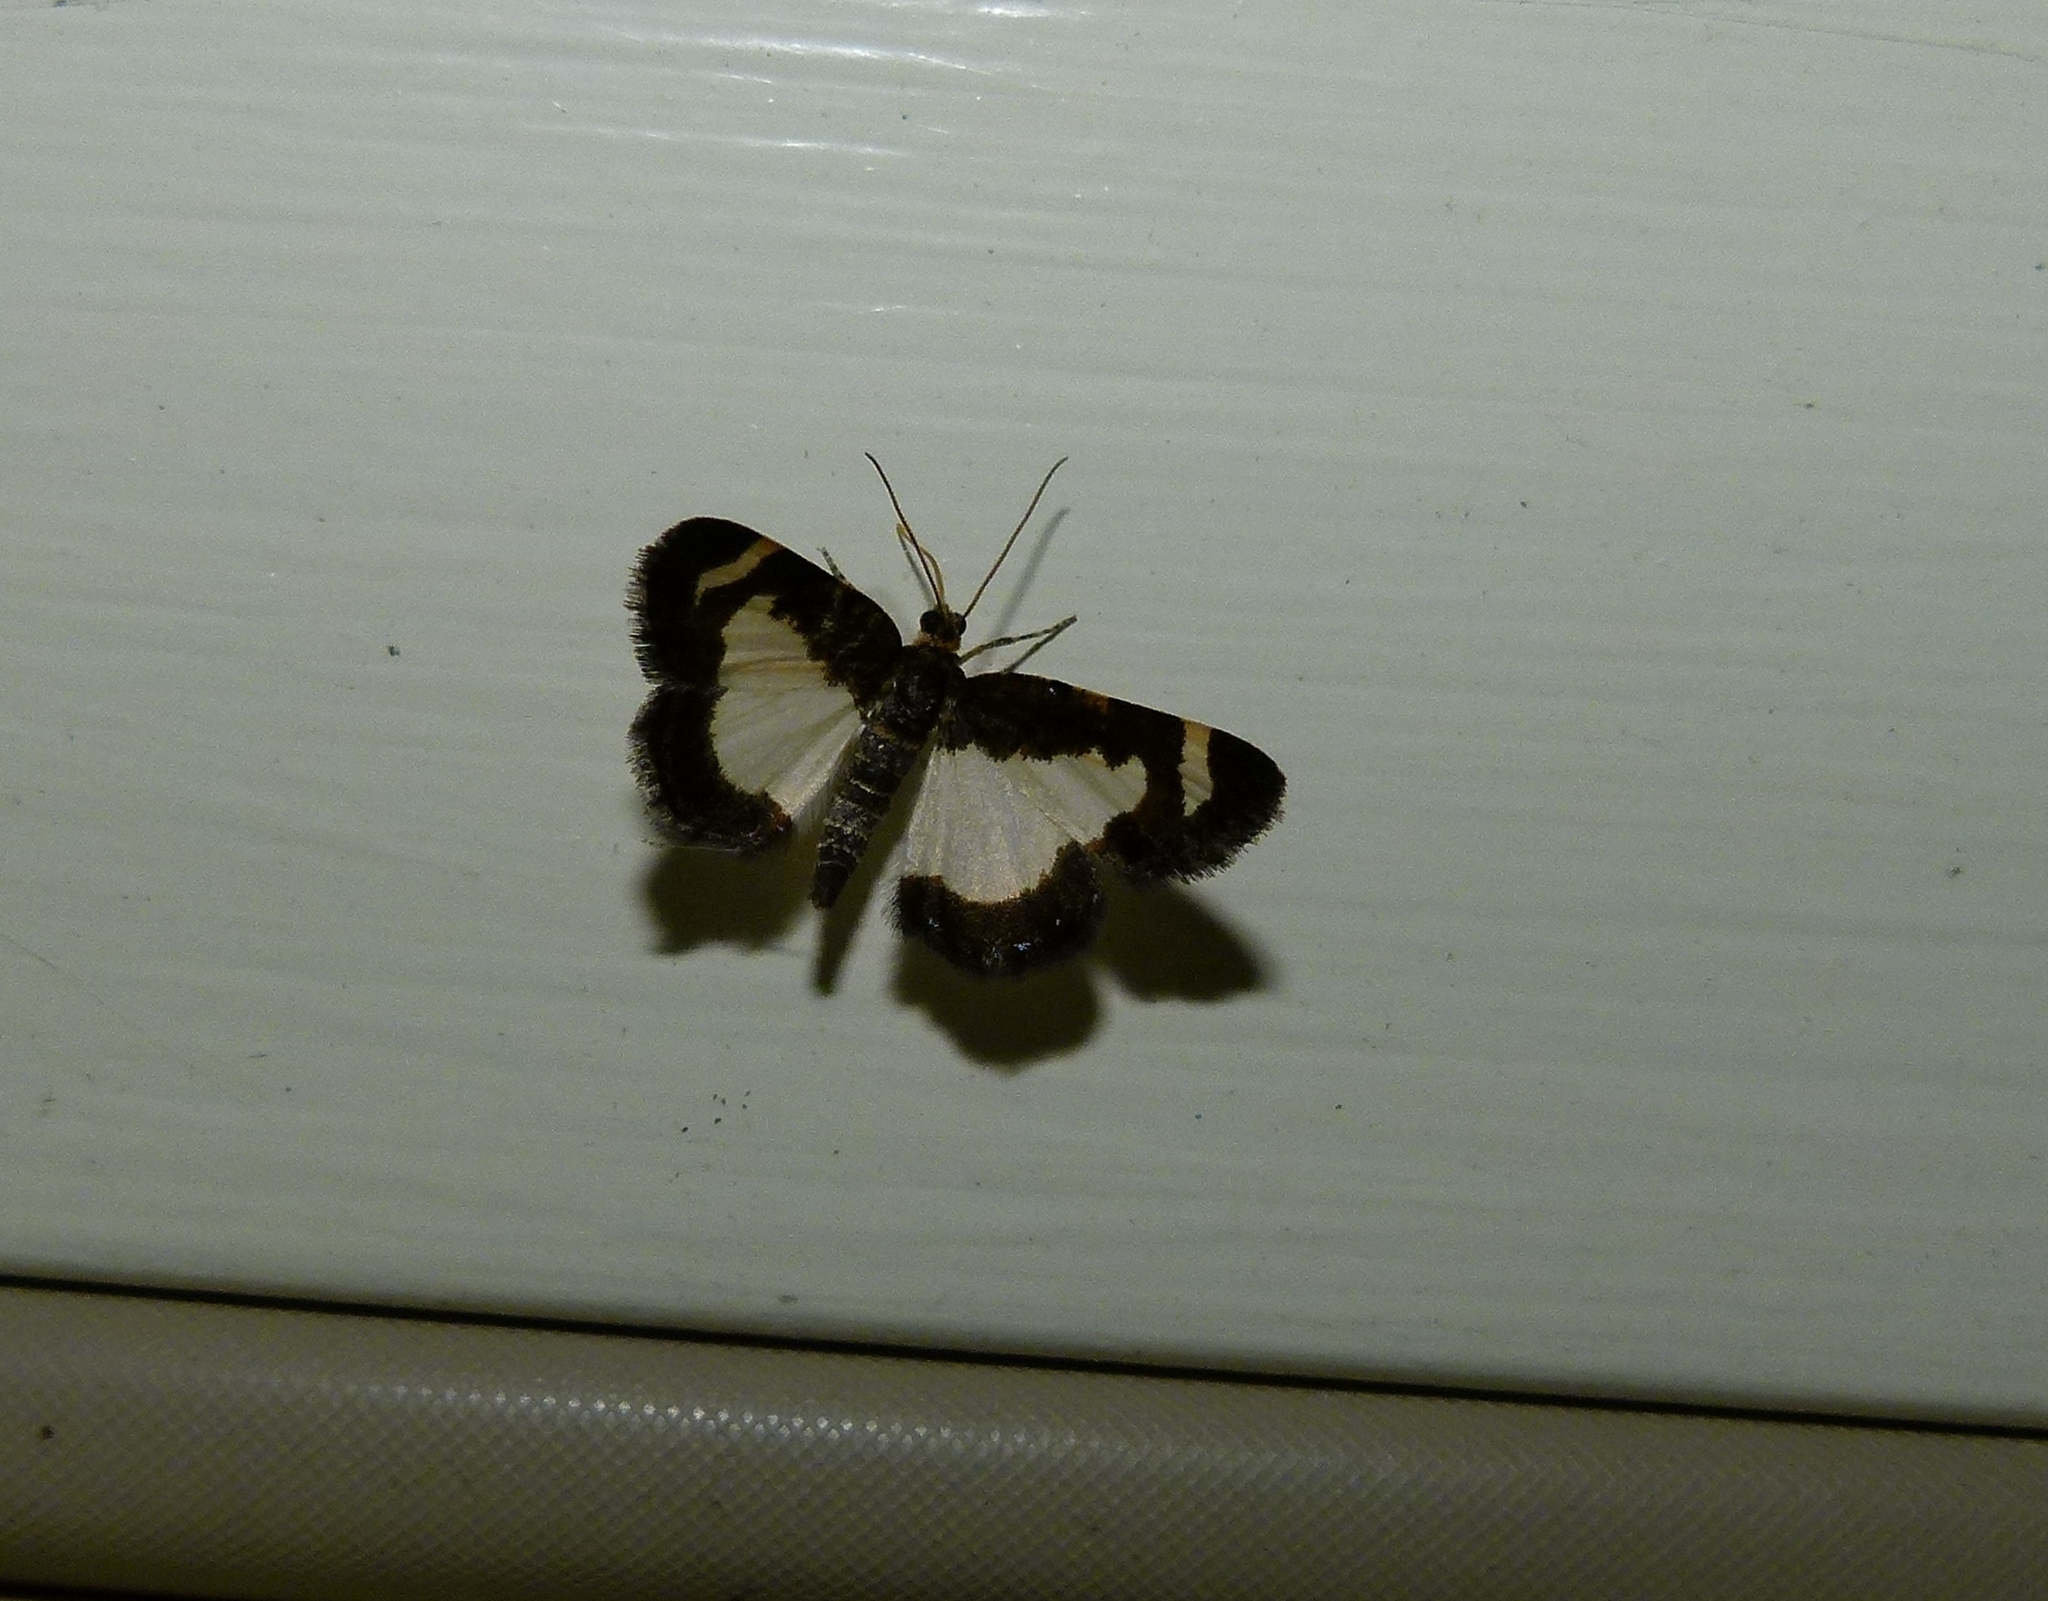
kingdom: Animalia
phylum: Arthropoda
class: Insecta
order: Lepidoptera
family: Geometridae
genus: Heliomata
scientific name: Heliomata cycladata
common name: Common spring moth
